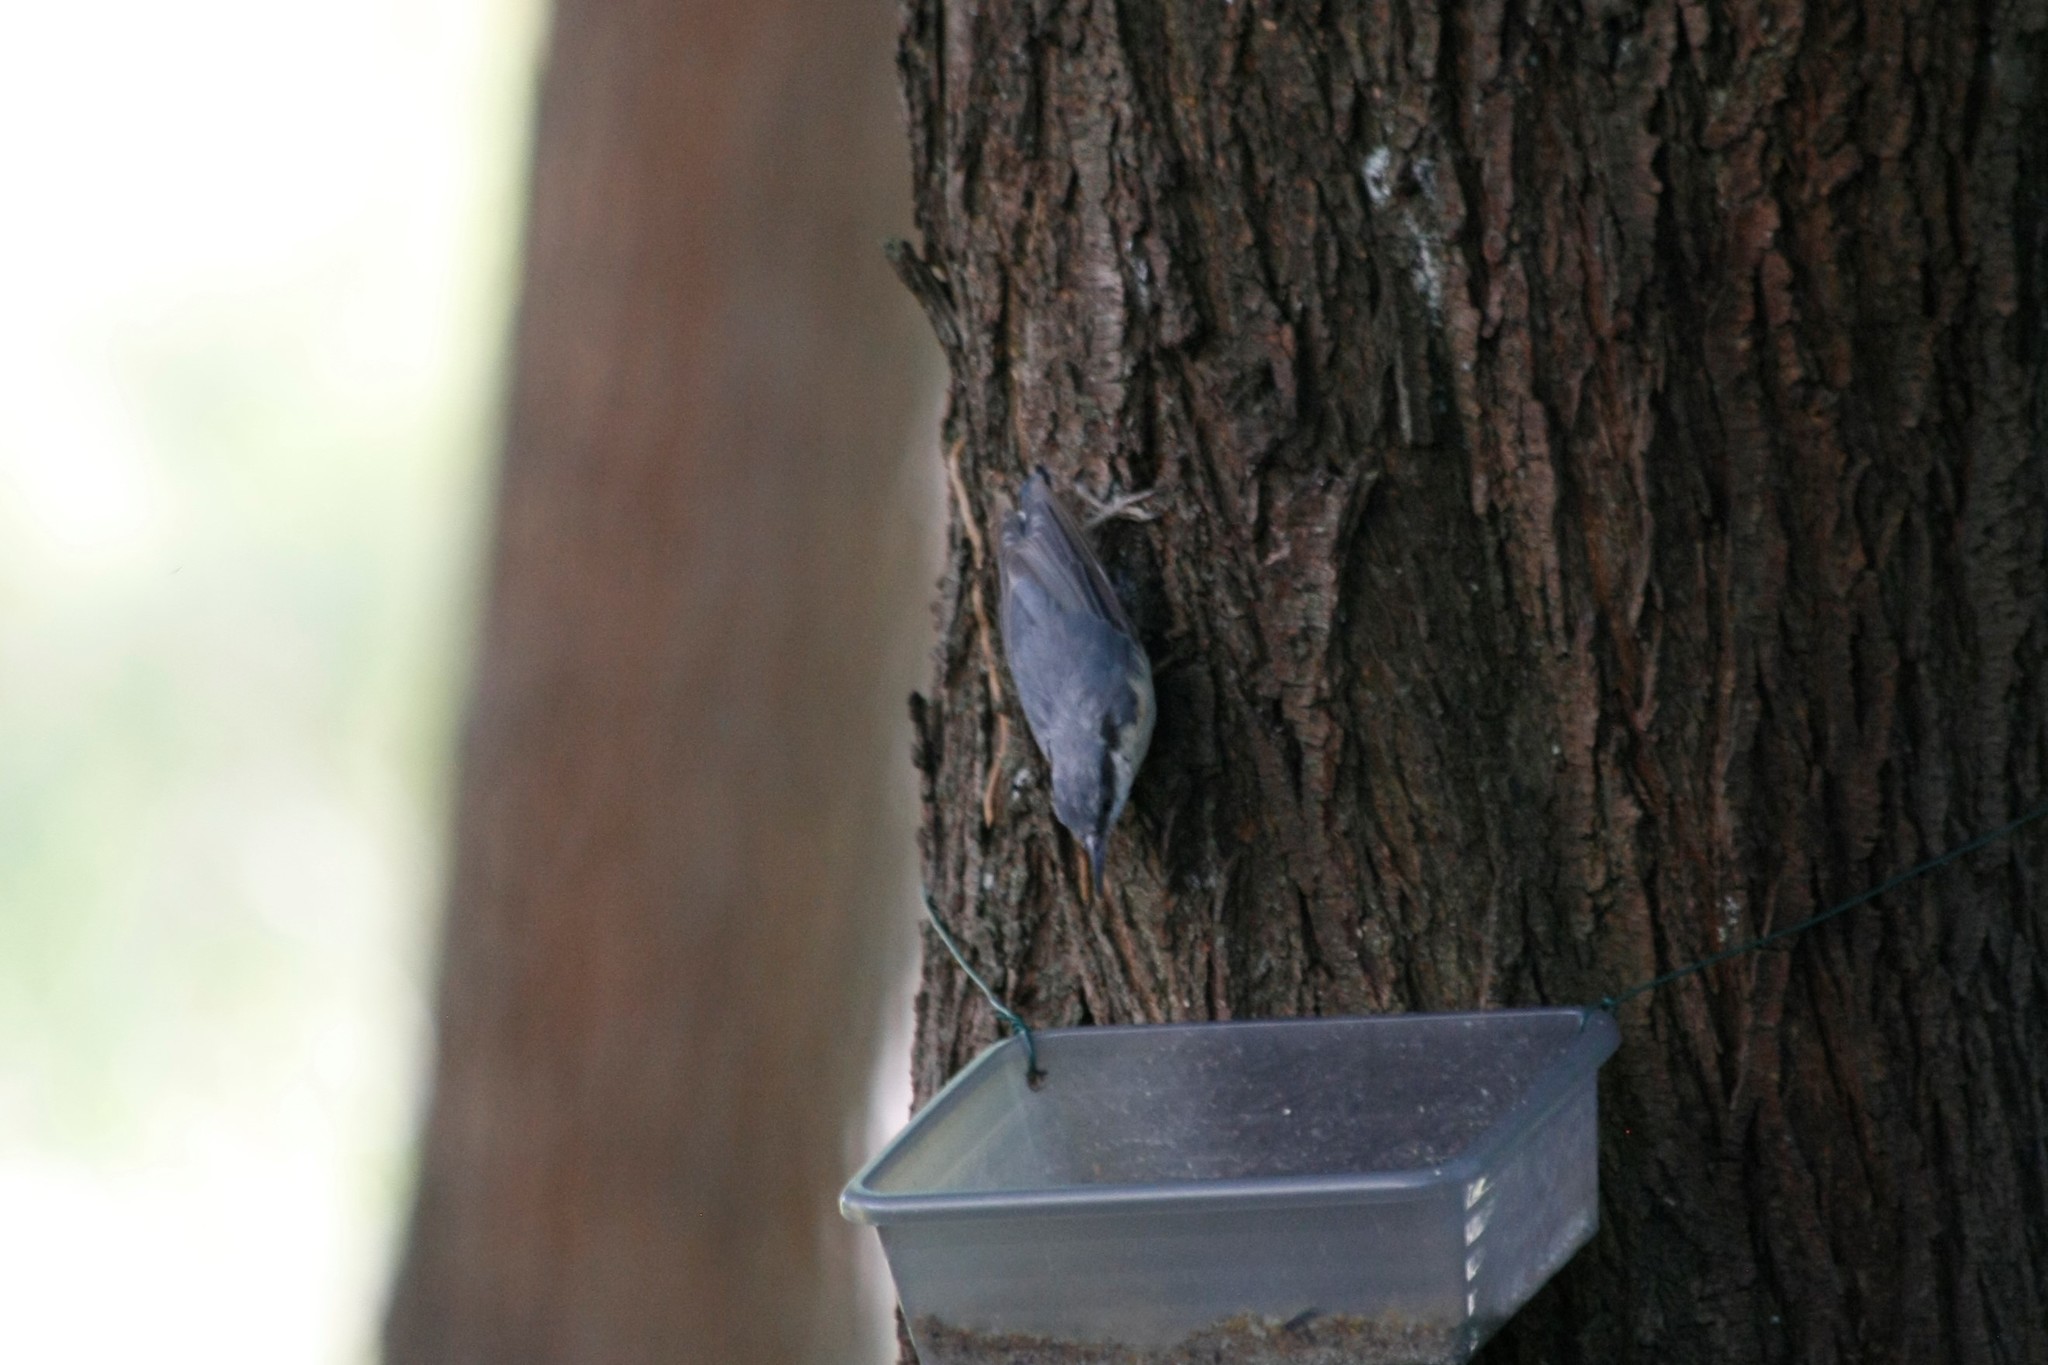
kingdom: Animalia
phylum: Chordata
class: Aves
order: Passeriformes
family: Sittidae
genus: Sitta
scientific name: Sitta europaea
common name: Eurasian nuthatch
